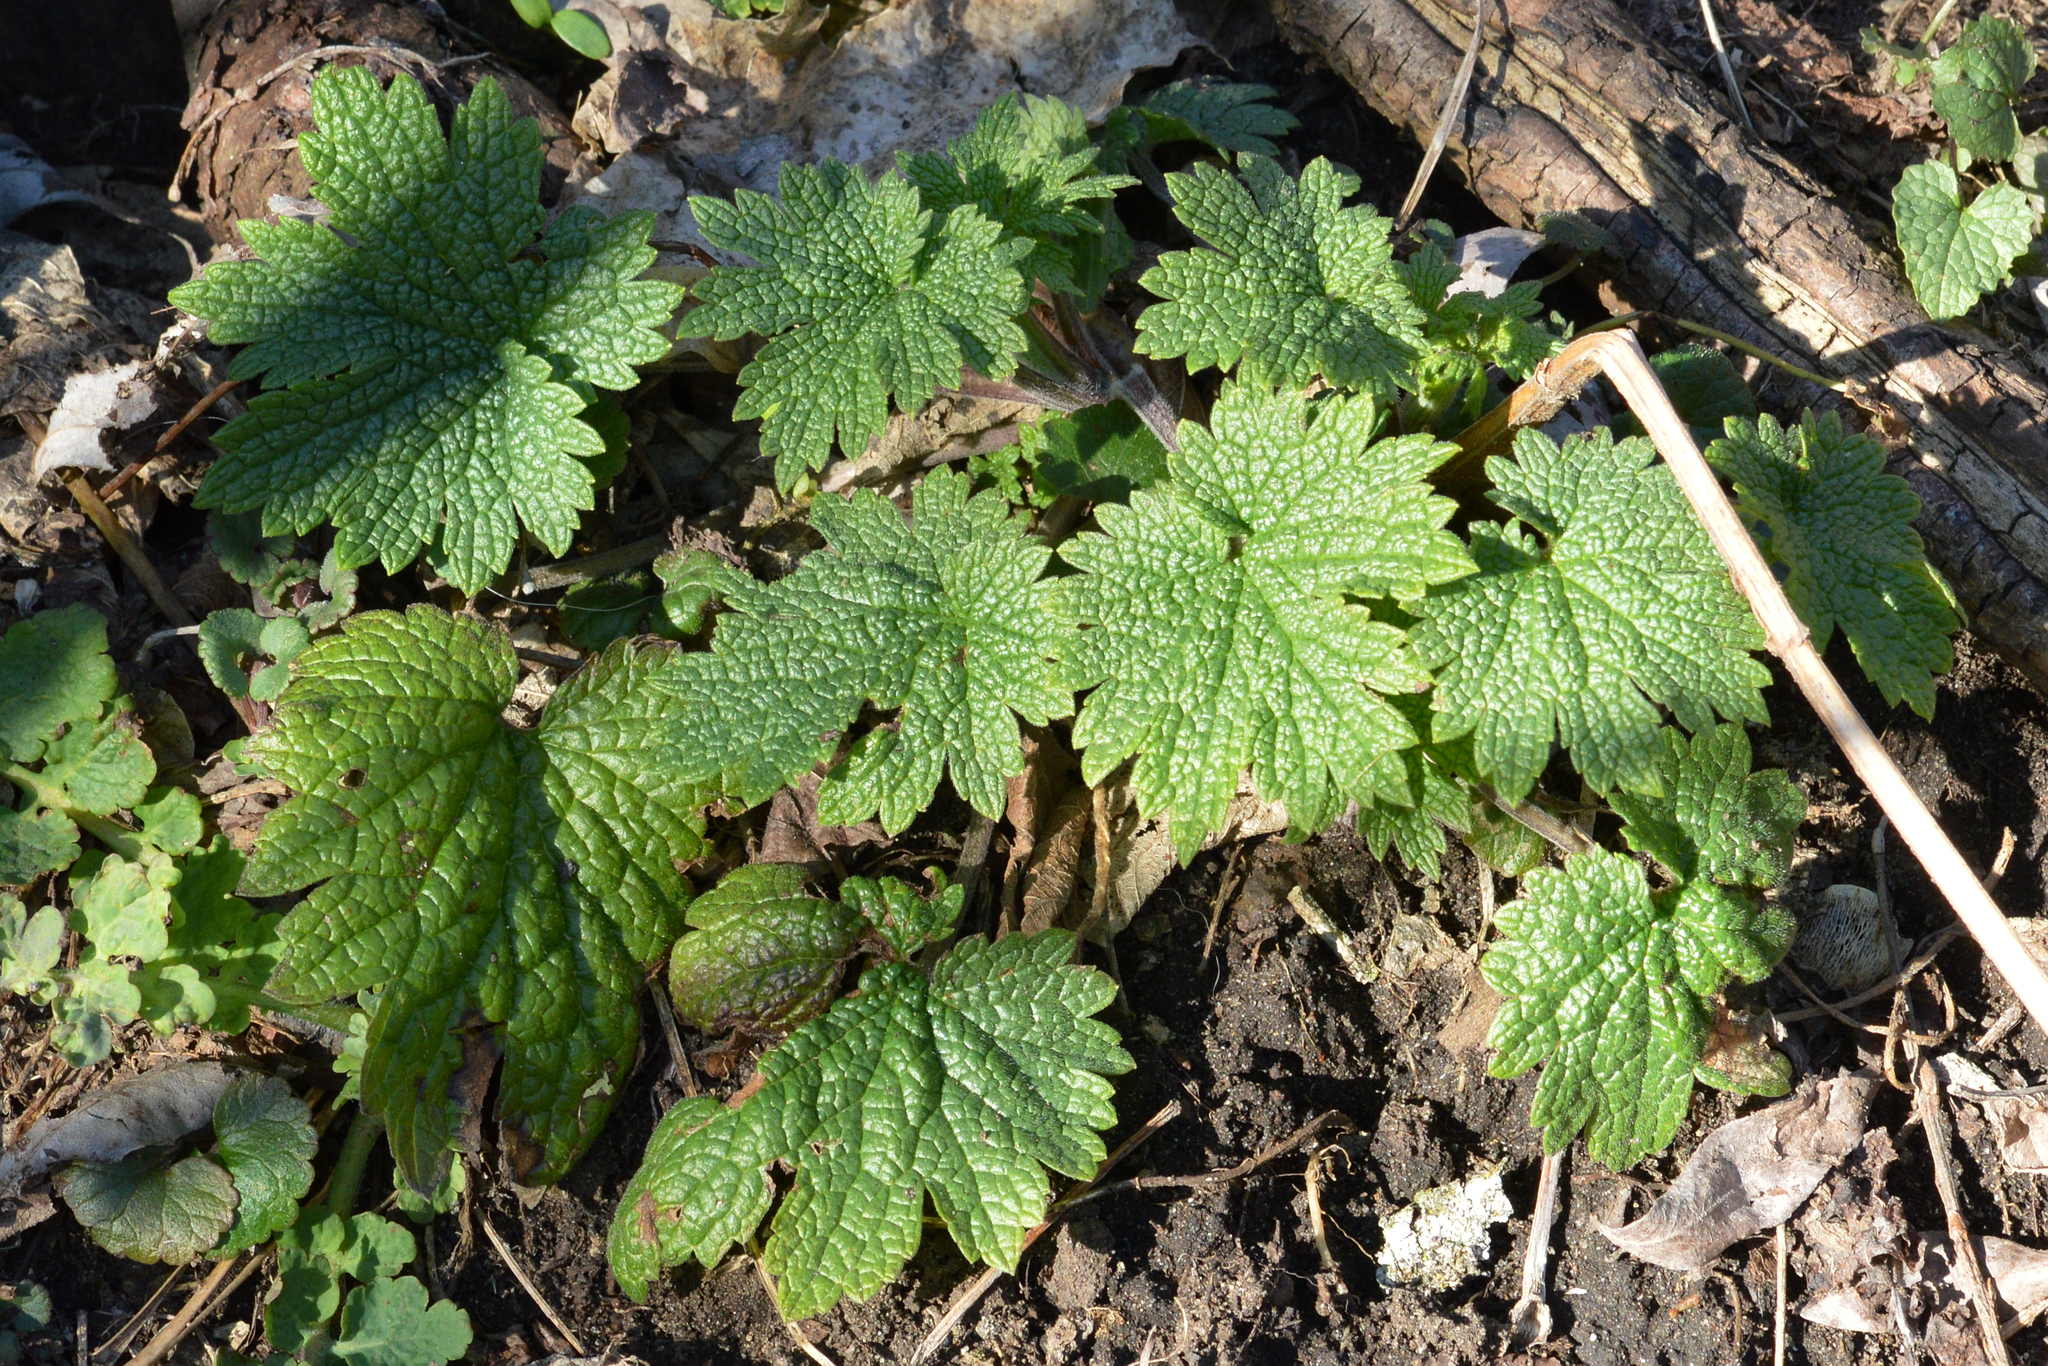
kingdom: Plantae
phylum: Tracheophyta
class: Magnoliopsida
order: Lamiales
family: Lamiaceae
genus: Leonurus
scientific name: Leonurus cardiaca
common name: Motherwort
